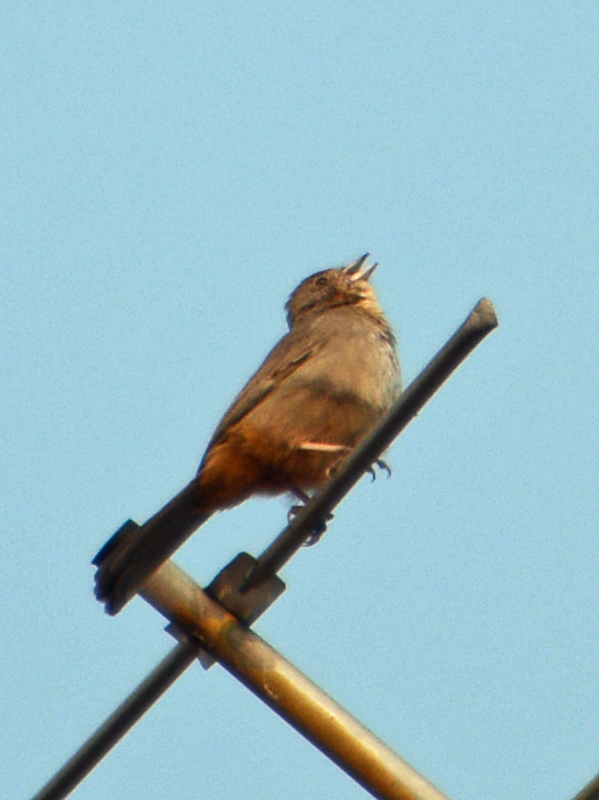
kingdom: Animalia
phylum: Chordata
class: Aves
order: Passeriformes
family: Passerellidae
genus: Melozone
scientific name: Melozone fusca
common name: Canyon towhee
